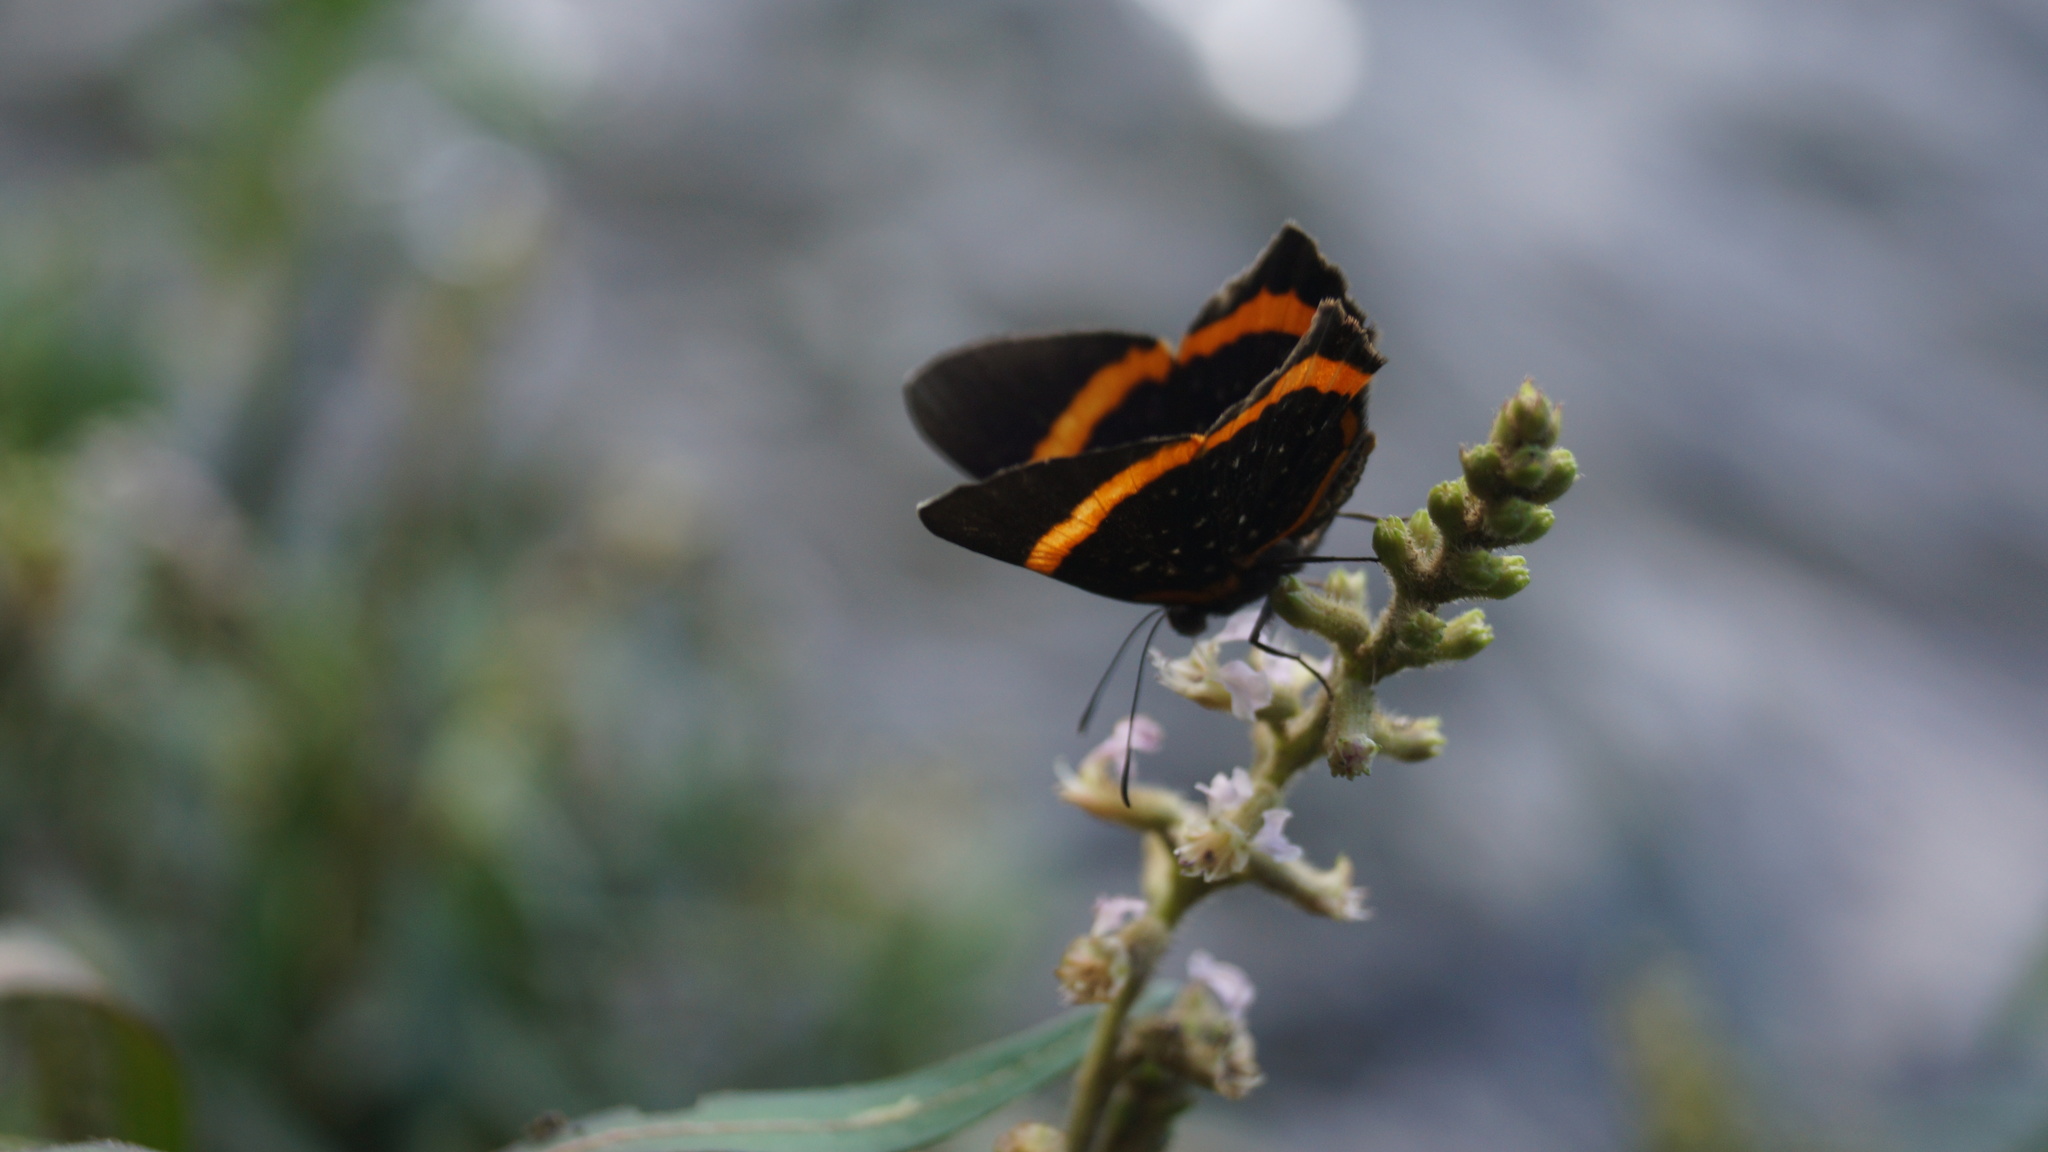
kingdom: Animalia
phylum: Arthropoda
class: Insecta
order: Lepidoptera
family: Riodinidae
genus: Riodina
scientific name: Riodina lysippus
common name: Lysippus metalmark
